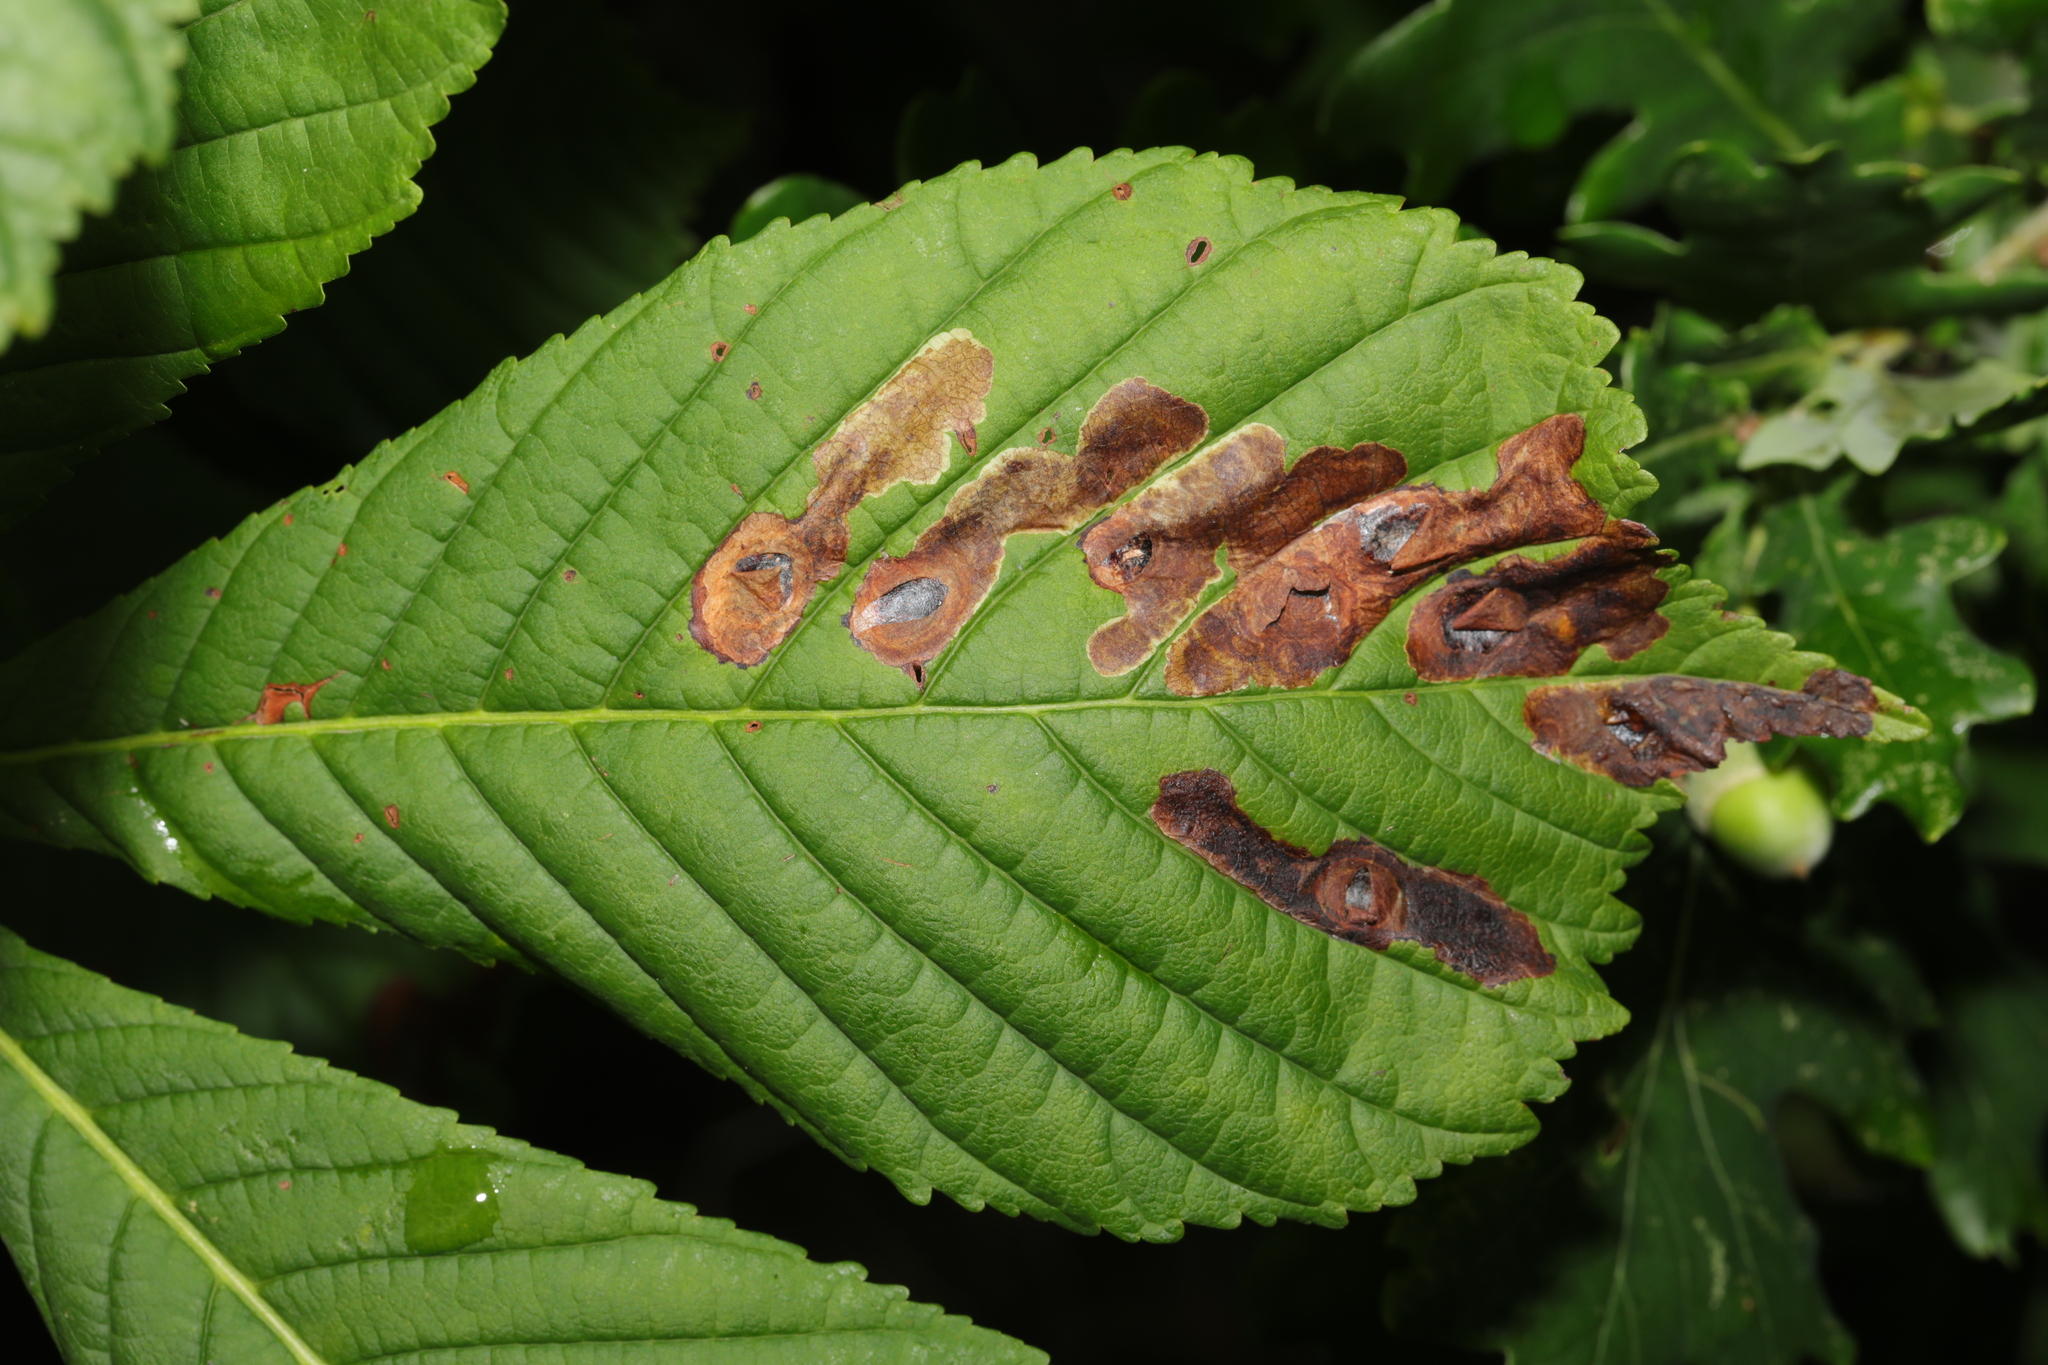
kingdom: Animalia
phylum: Arthropoda
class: Insecta
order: Lepidoptera
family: Gracillariidae
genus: Cameraria
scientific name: Cameraria ohridella
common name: Horse-chestnut leaf-miner
